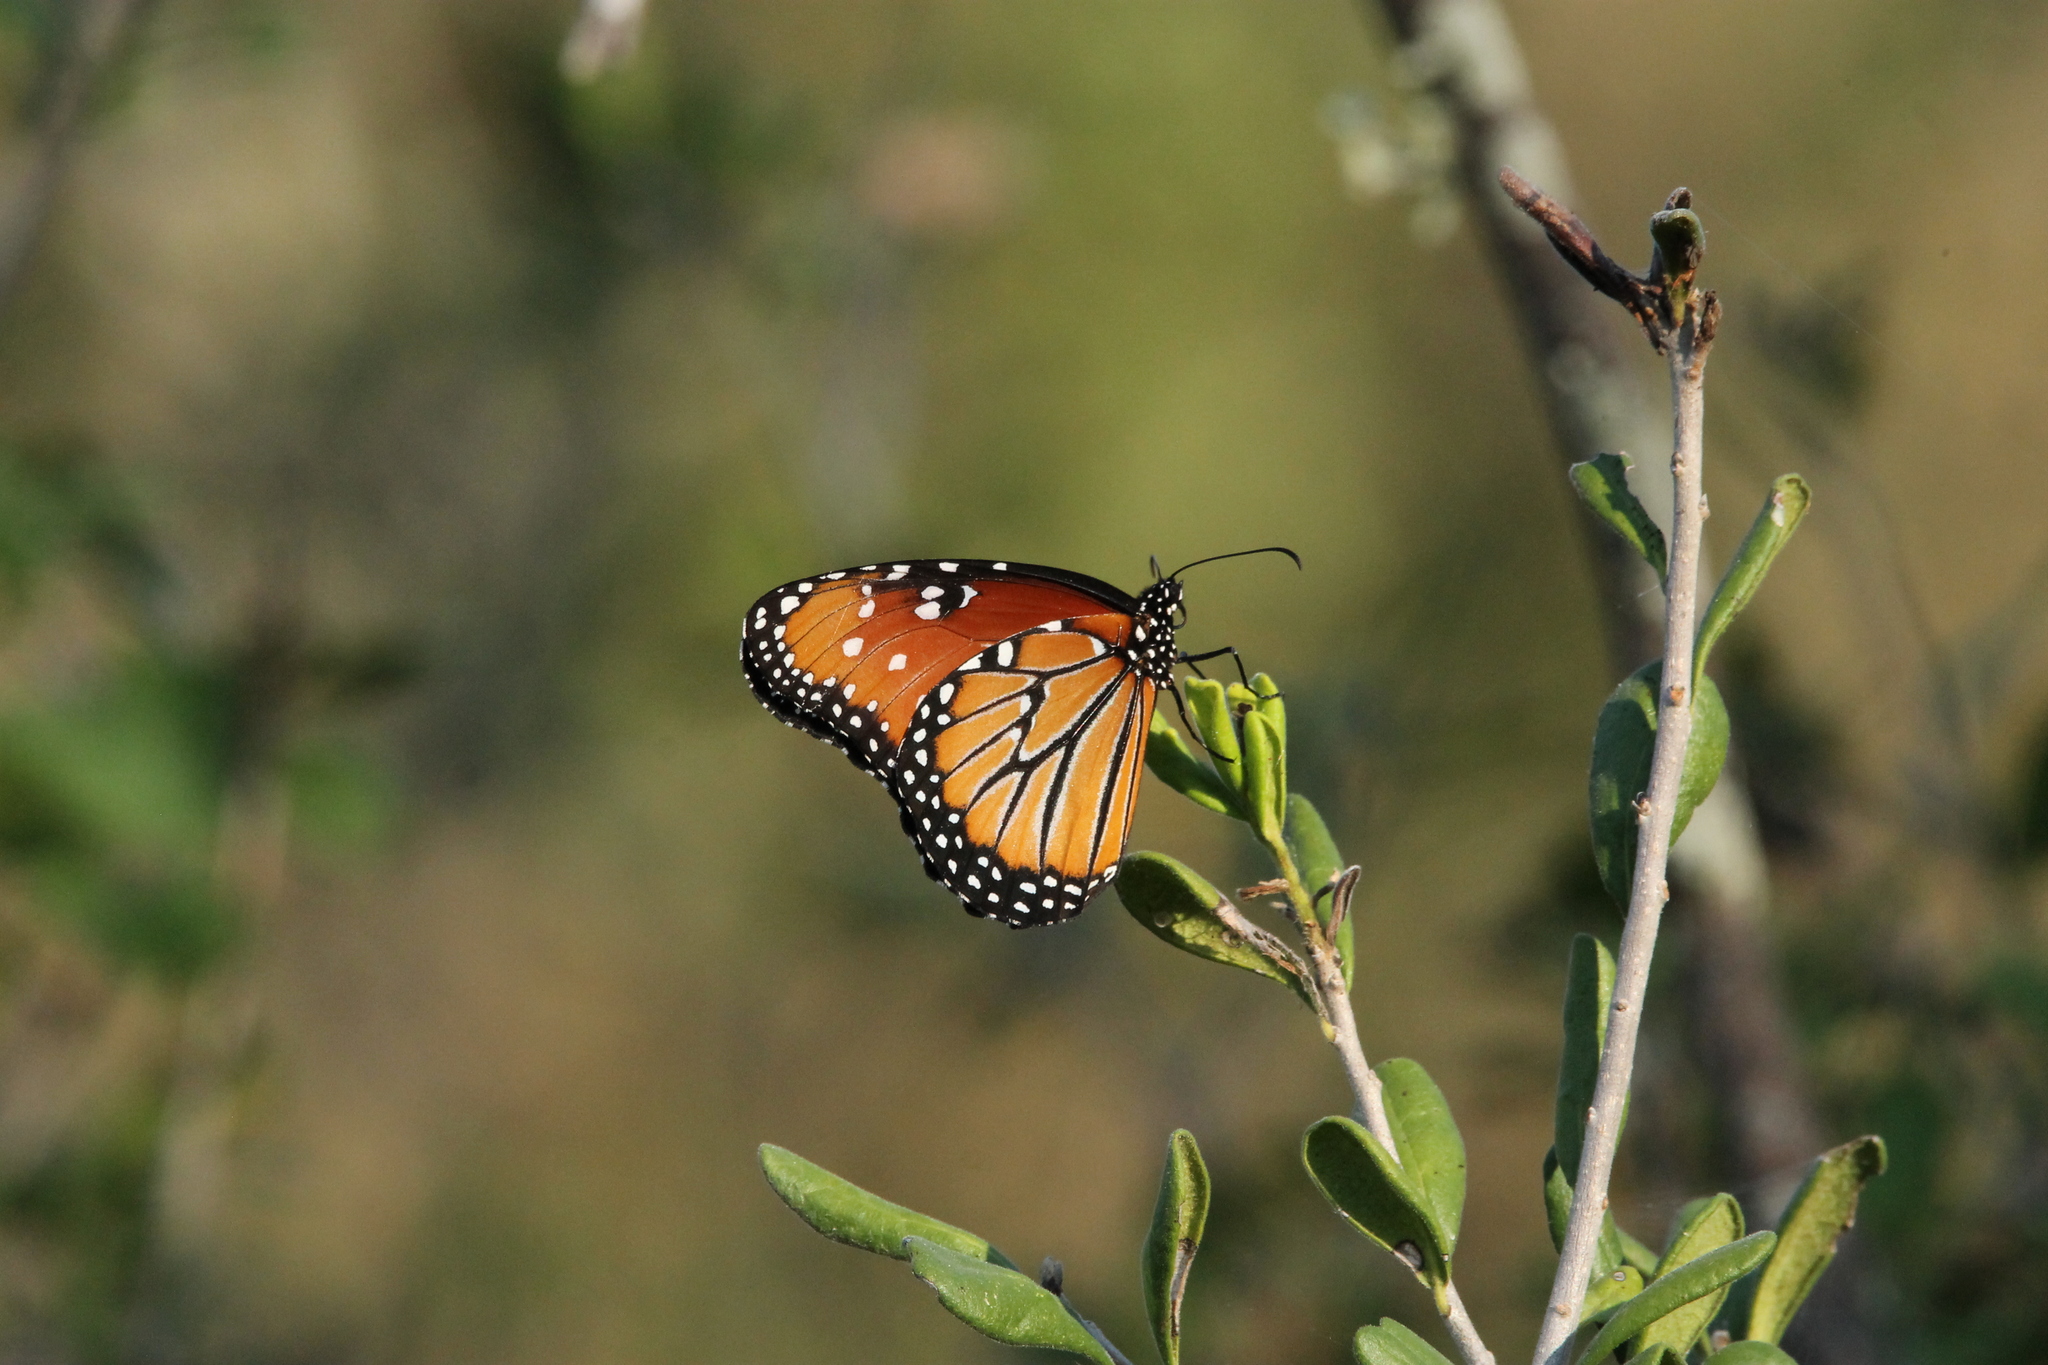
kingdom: Animalia
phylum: Arthropoda
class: Insecta
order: Lepidoptera
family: Nymphalidae
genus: Danaus
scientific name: Danaus gilippus
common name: Queen
